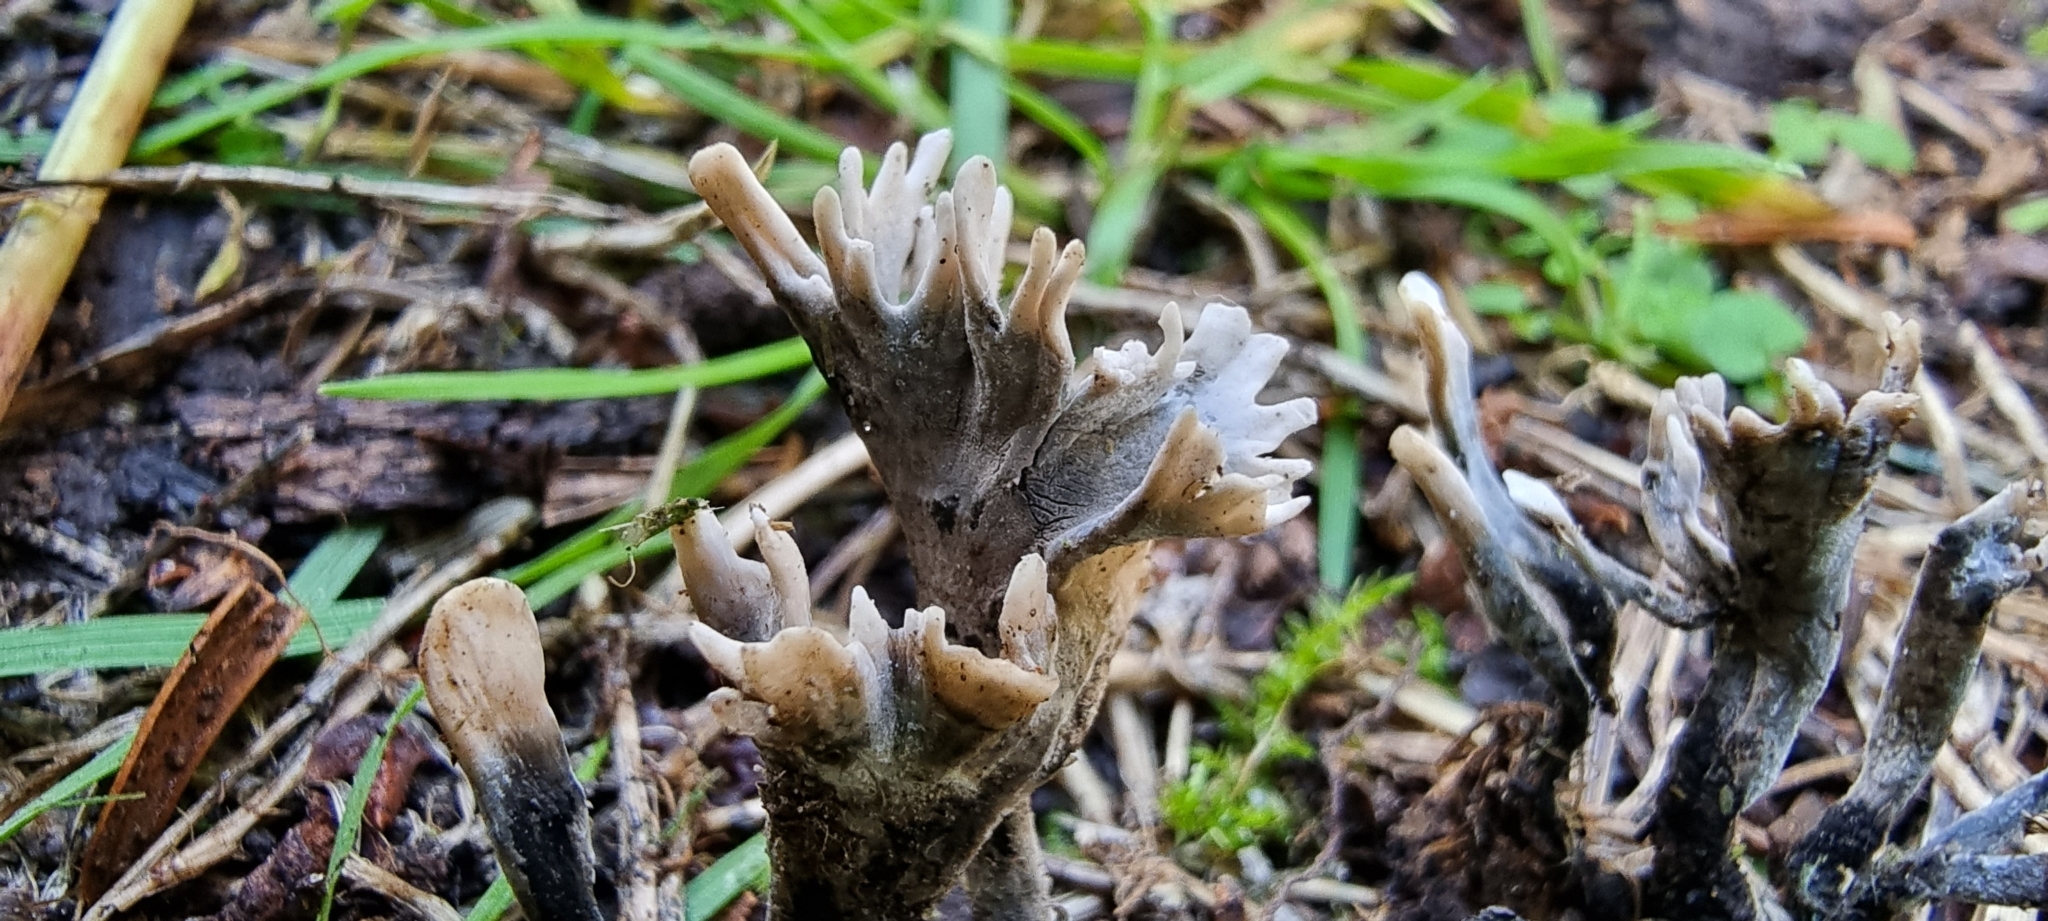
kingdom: Fungi
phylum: Ascomycota
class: Sordariomycetes
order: Xylariales
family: Xylariaceae
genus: Xylaria
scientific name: Xylaria hypoxylon
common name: Candle-snuff fungus
